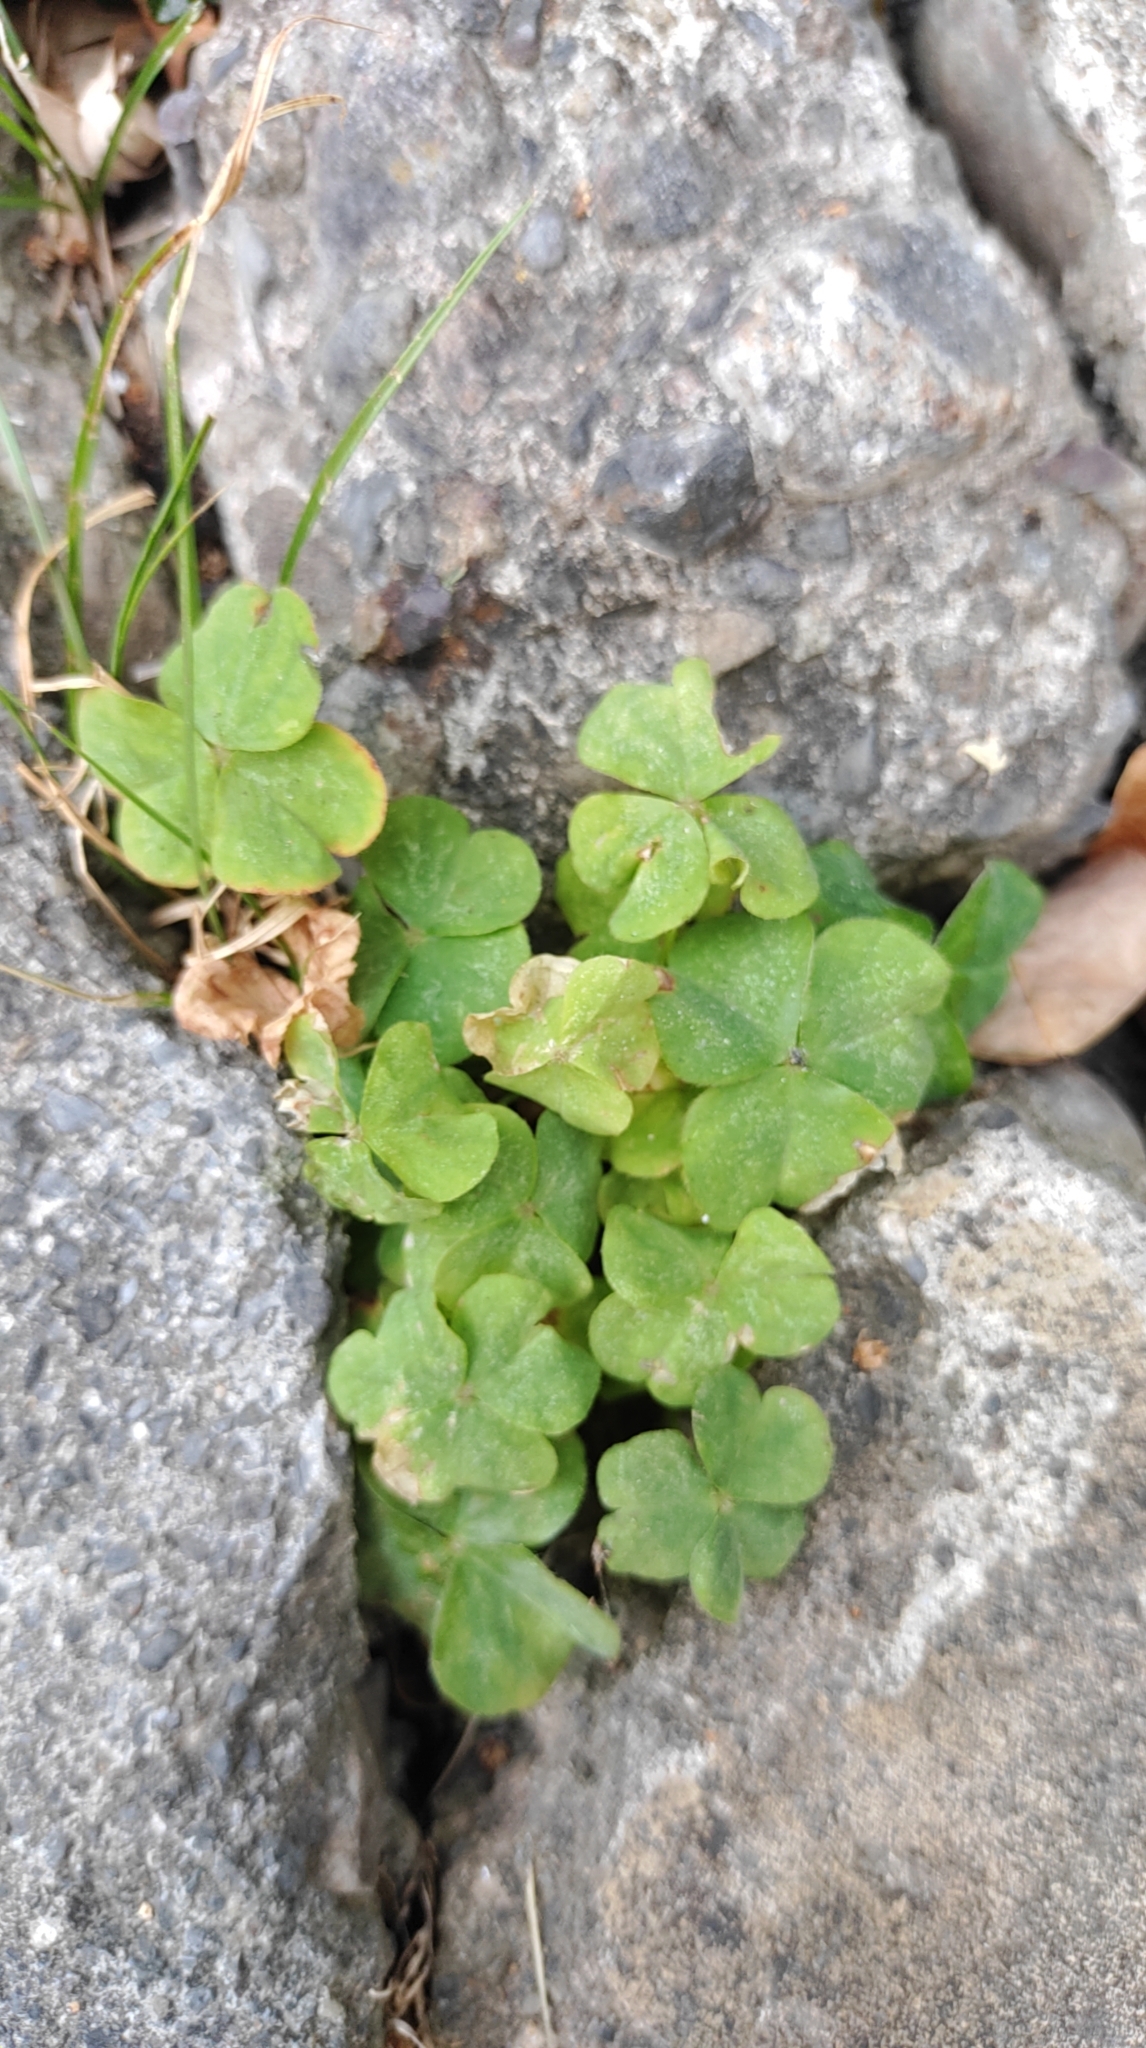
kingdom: Plantae
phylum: Tracheophyta
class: Magnoliopsida
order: Oxalidales
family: Oxalidaceae
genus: Oxalis
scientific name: Oxalis debilis
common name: Large-flowered pink-sorrel
